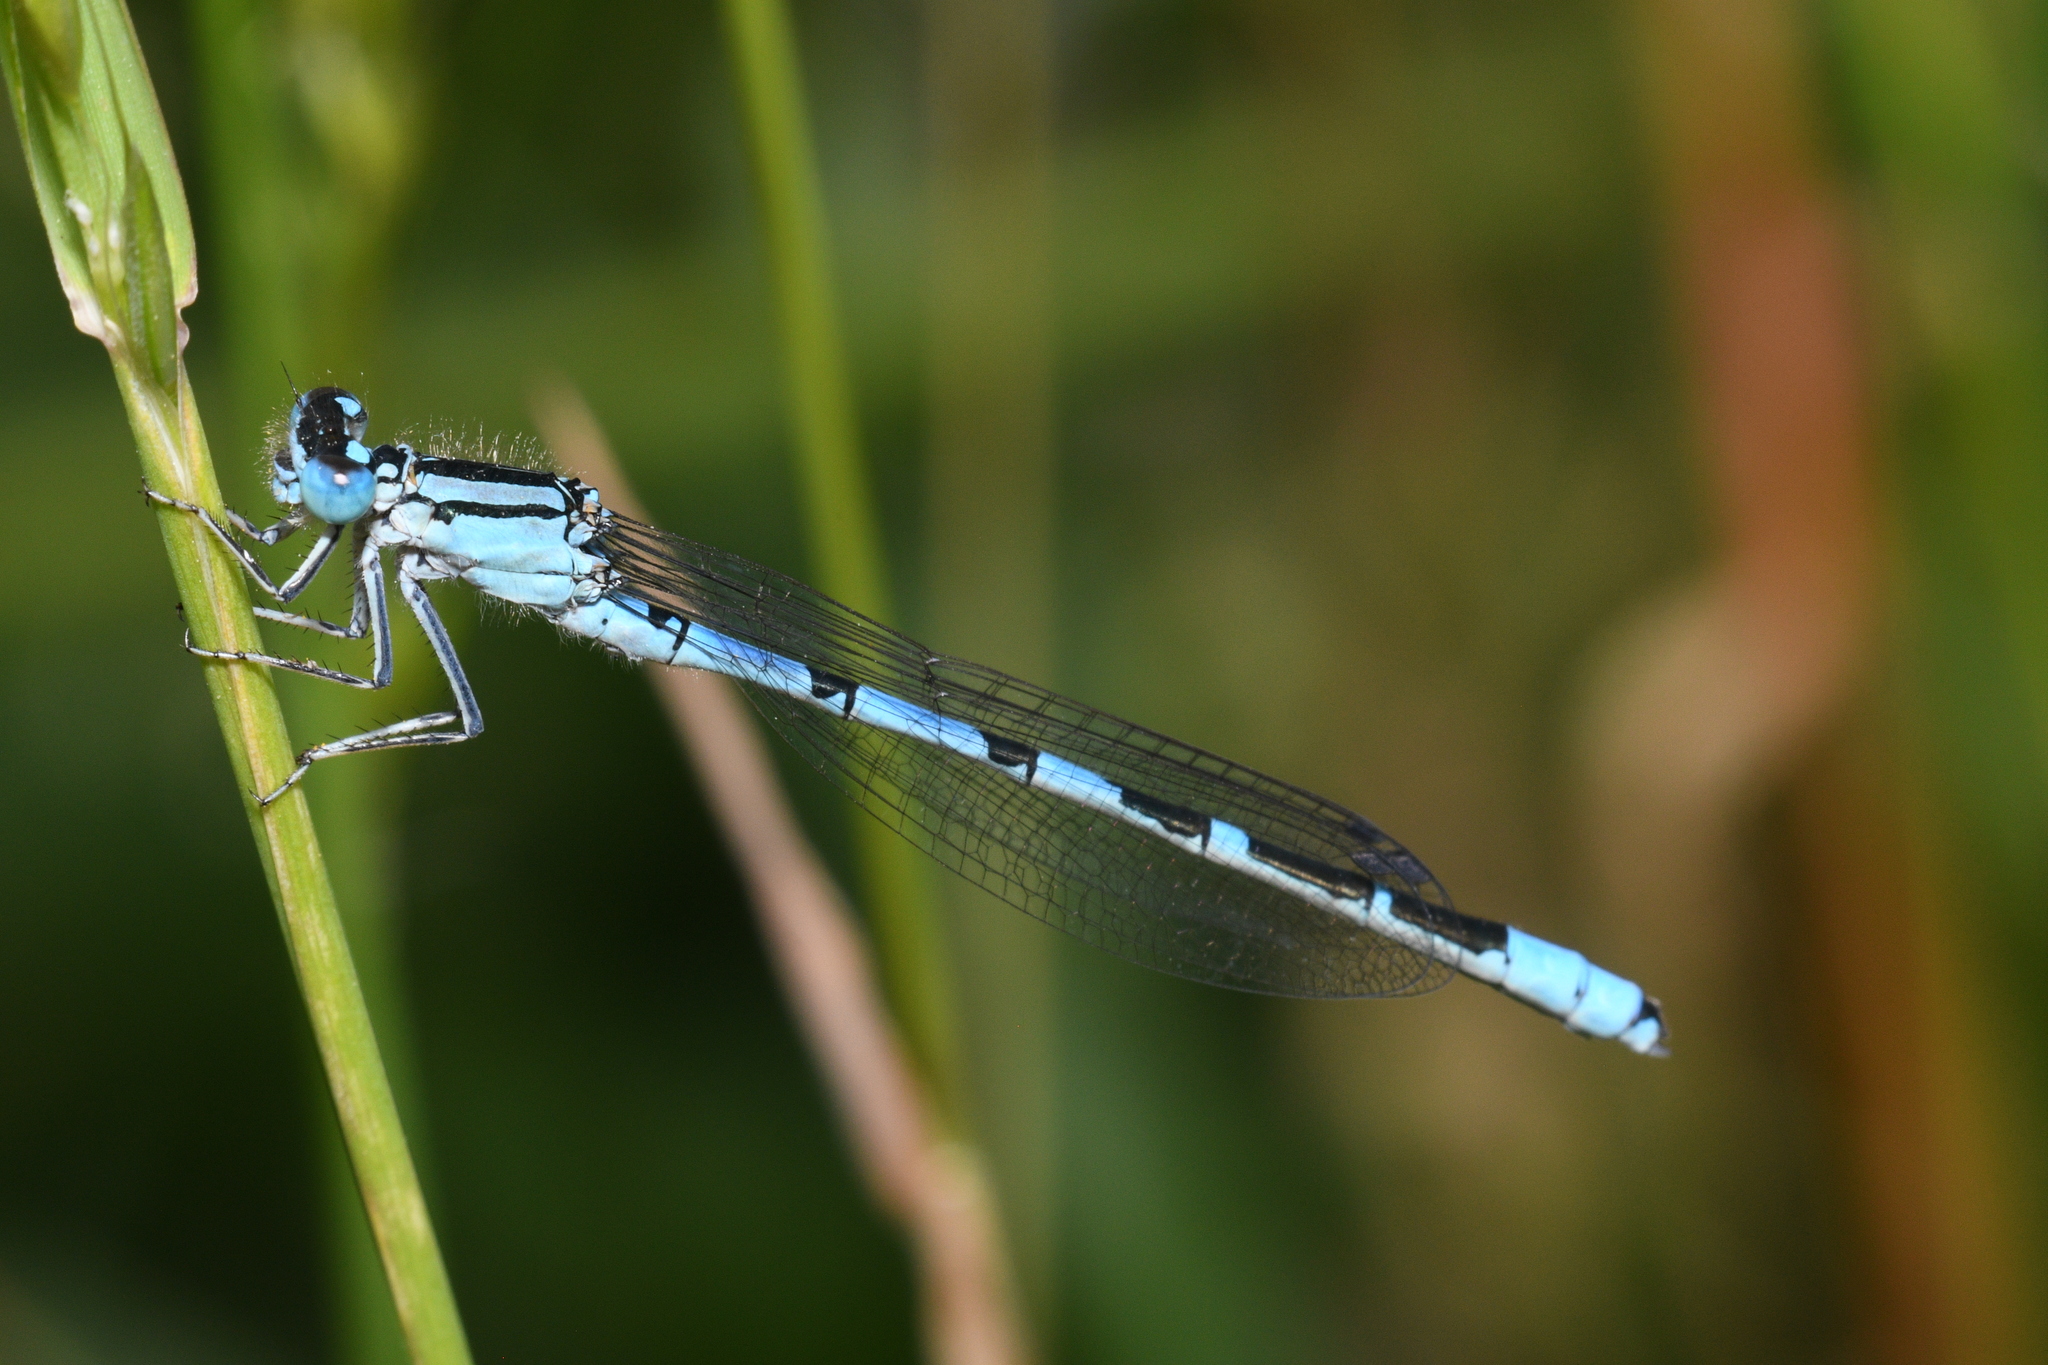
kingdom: Animalia
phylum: Arthropoda
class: Insecta
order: Odonata
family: Coenagrionidae
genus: Enallagma
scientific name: Enallagma cyathigerum
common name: Common blue damselfly
